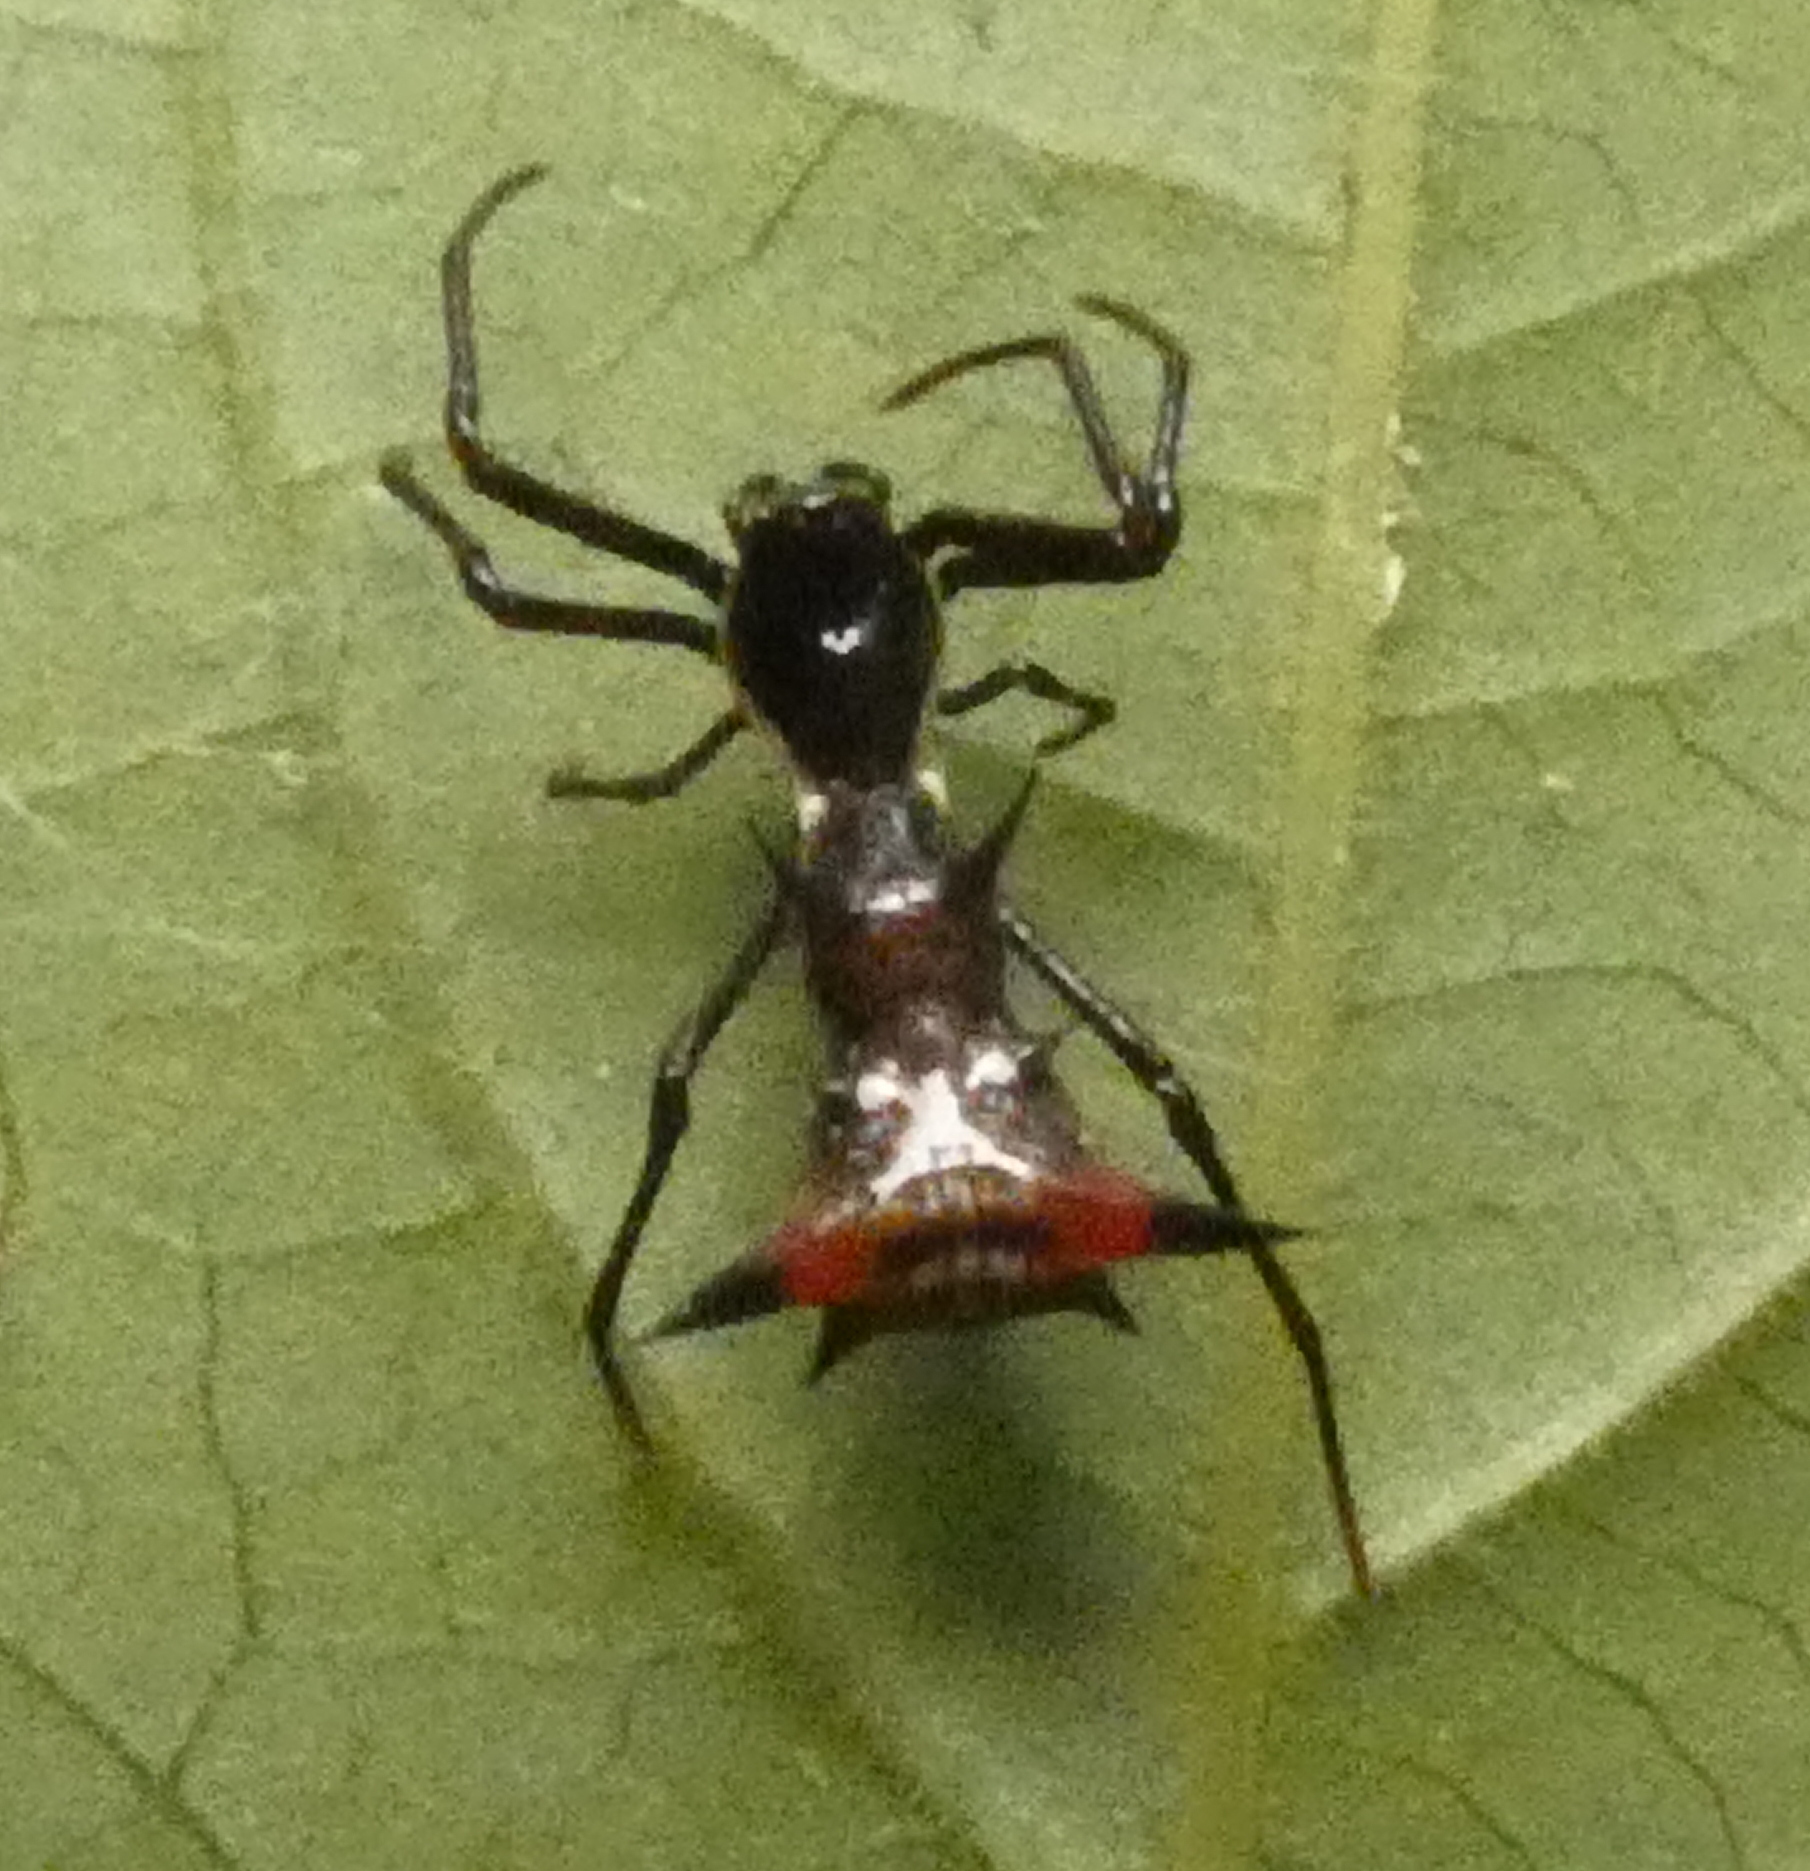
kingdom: Animalia
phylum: Arthropoda
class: Arachnida
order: Araneae
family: Araneidae
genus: Micrathena
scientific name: Micrathena schreibersi
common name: Orb weavers
